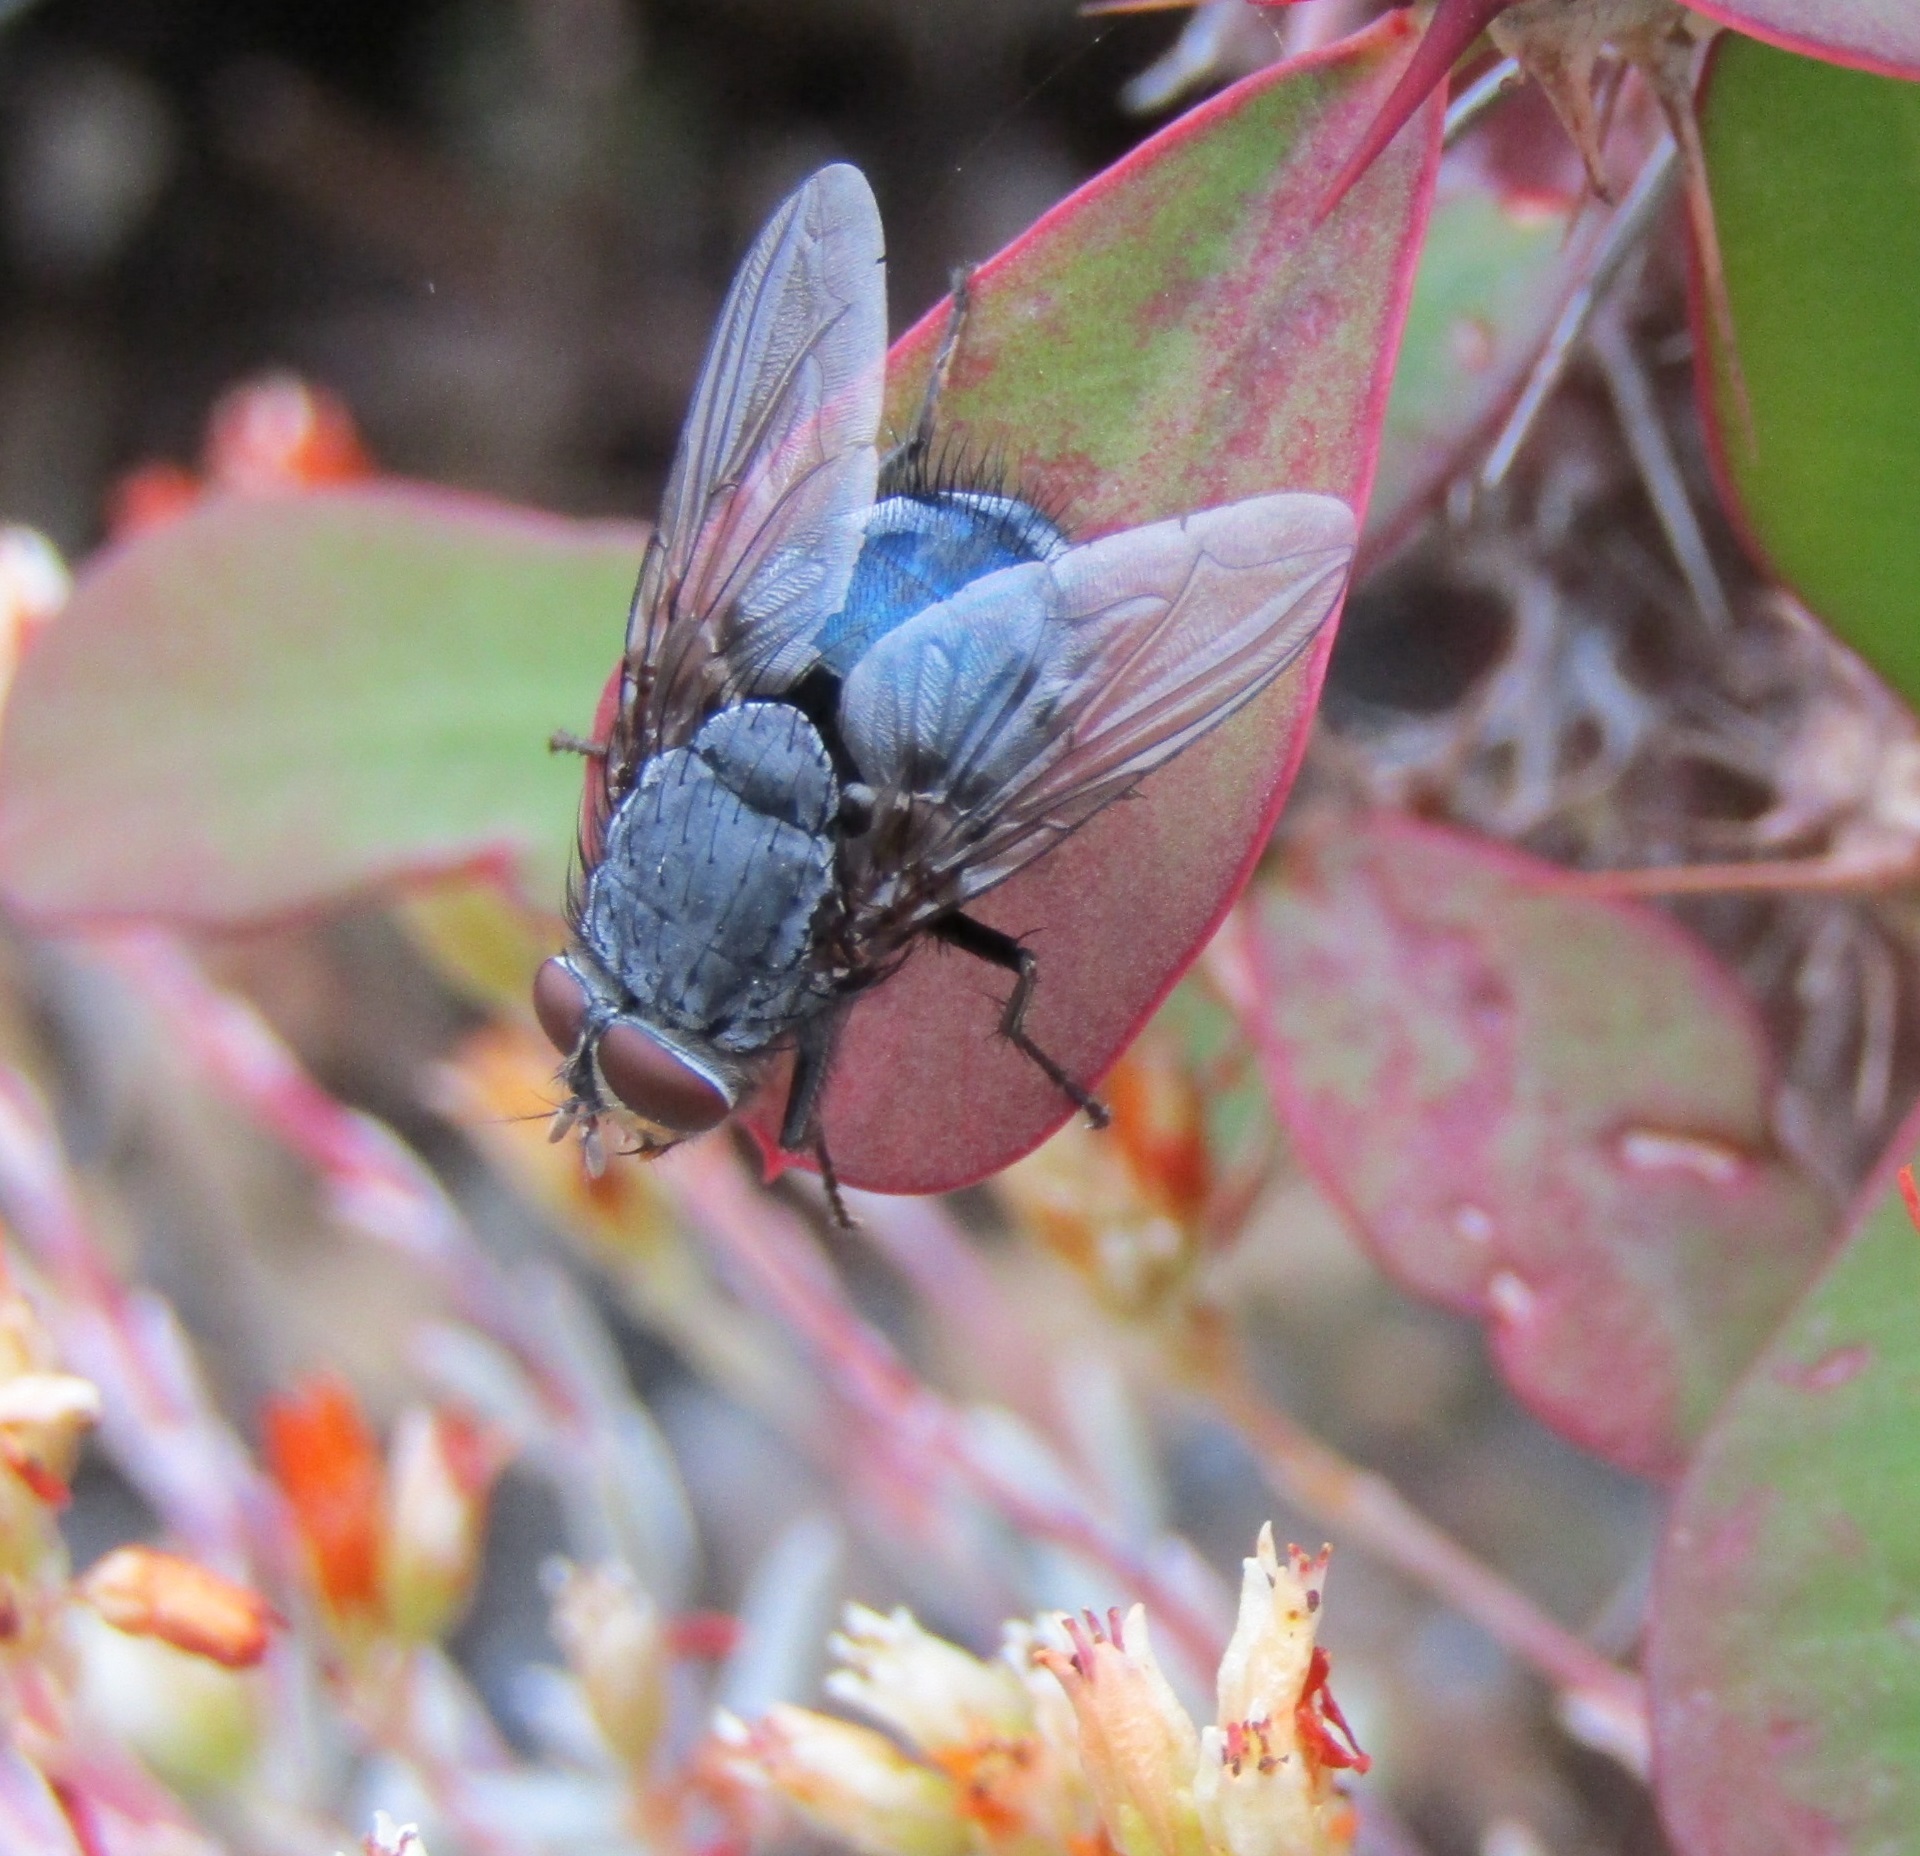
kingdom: Animalia
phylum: Arthropoda
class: Insecta
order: Diptera
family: Calliphoridae
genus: Calliphora
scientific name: Calliphora vicina
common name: Common blow flie
